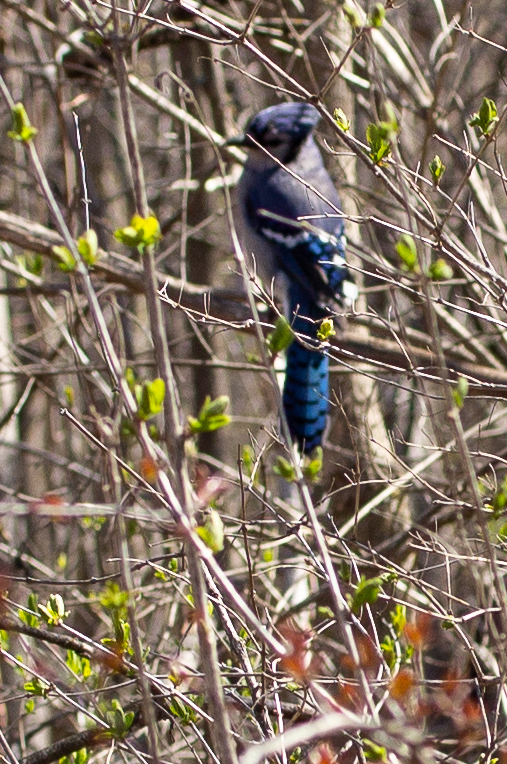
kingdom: Animalia
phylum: Chordata
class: Aves
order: Passeriformes
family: Corvidae
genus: Cyanocitta
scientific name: Cyanocitta cristata
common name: Blue jay
